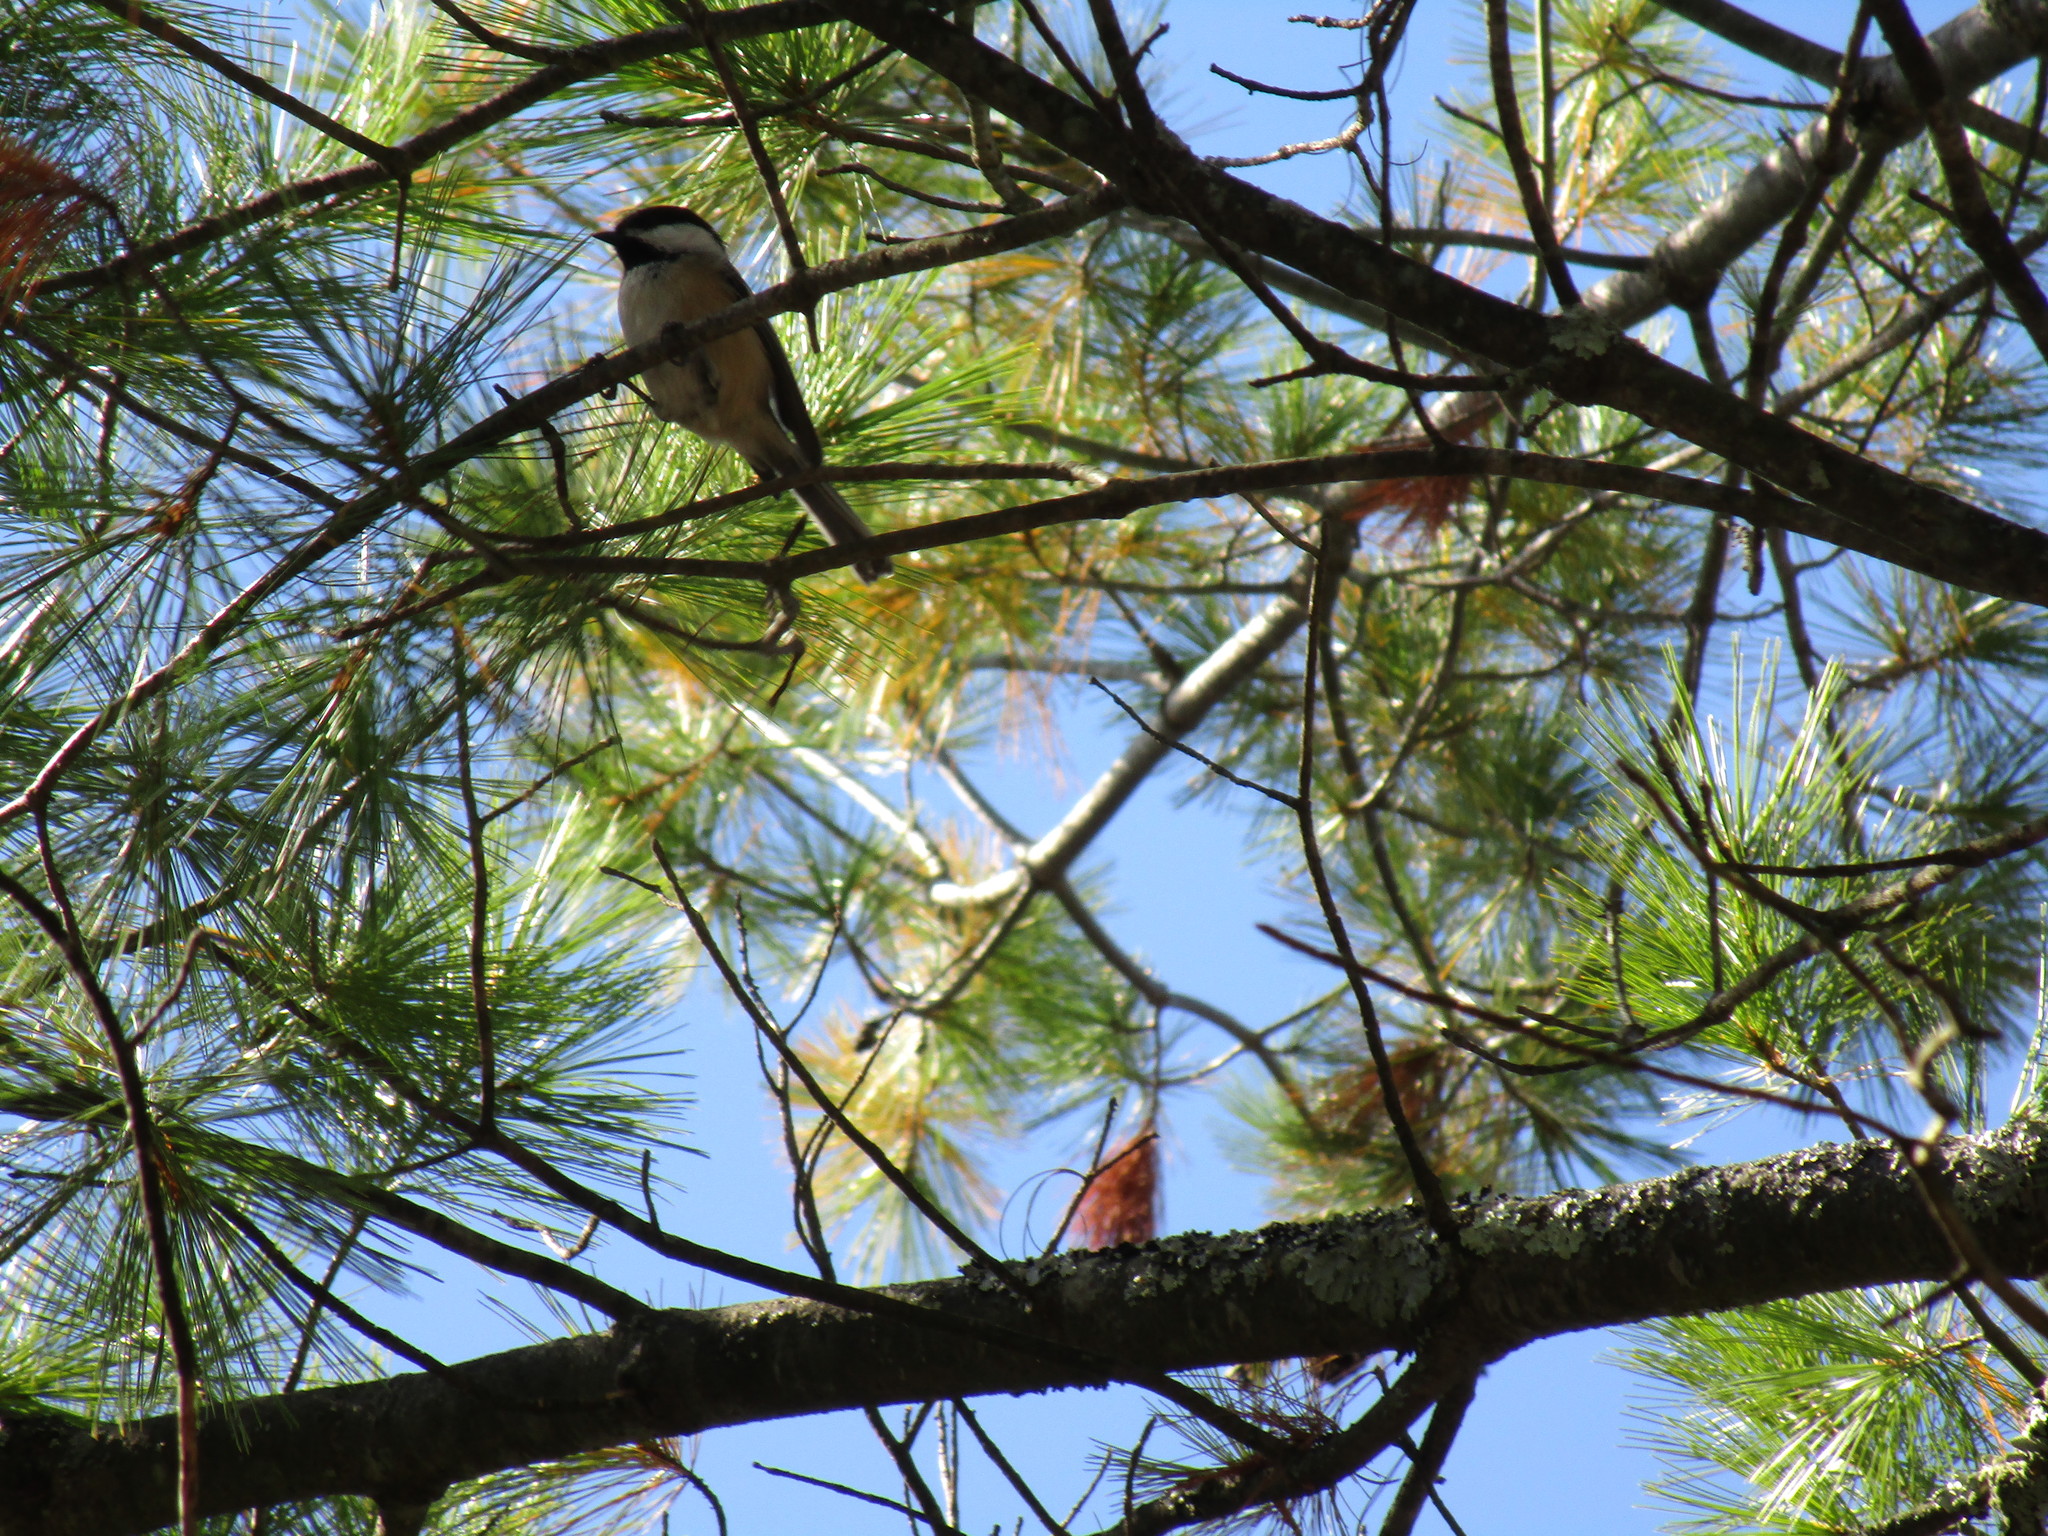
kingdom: Animalia
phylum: Chordata
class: Aves
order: Passeriformes
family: Paridae
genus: Poecile
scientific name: Poecile atricapillus
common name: Black-capped chickadee
